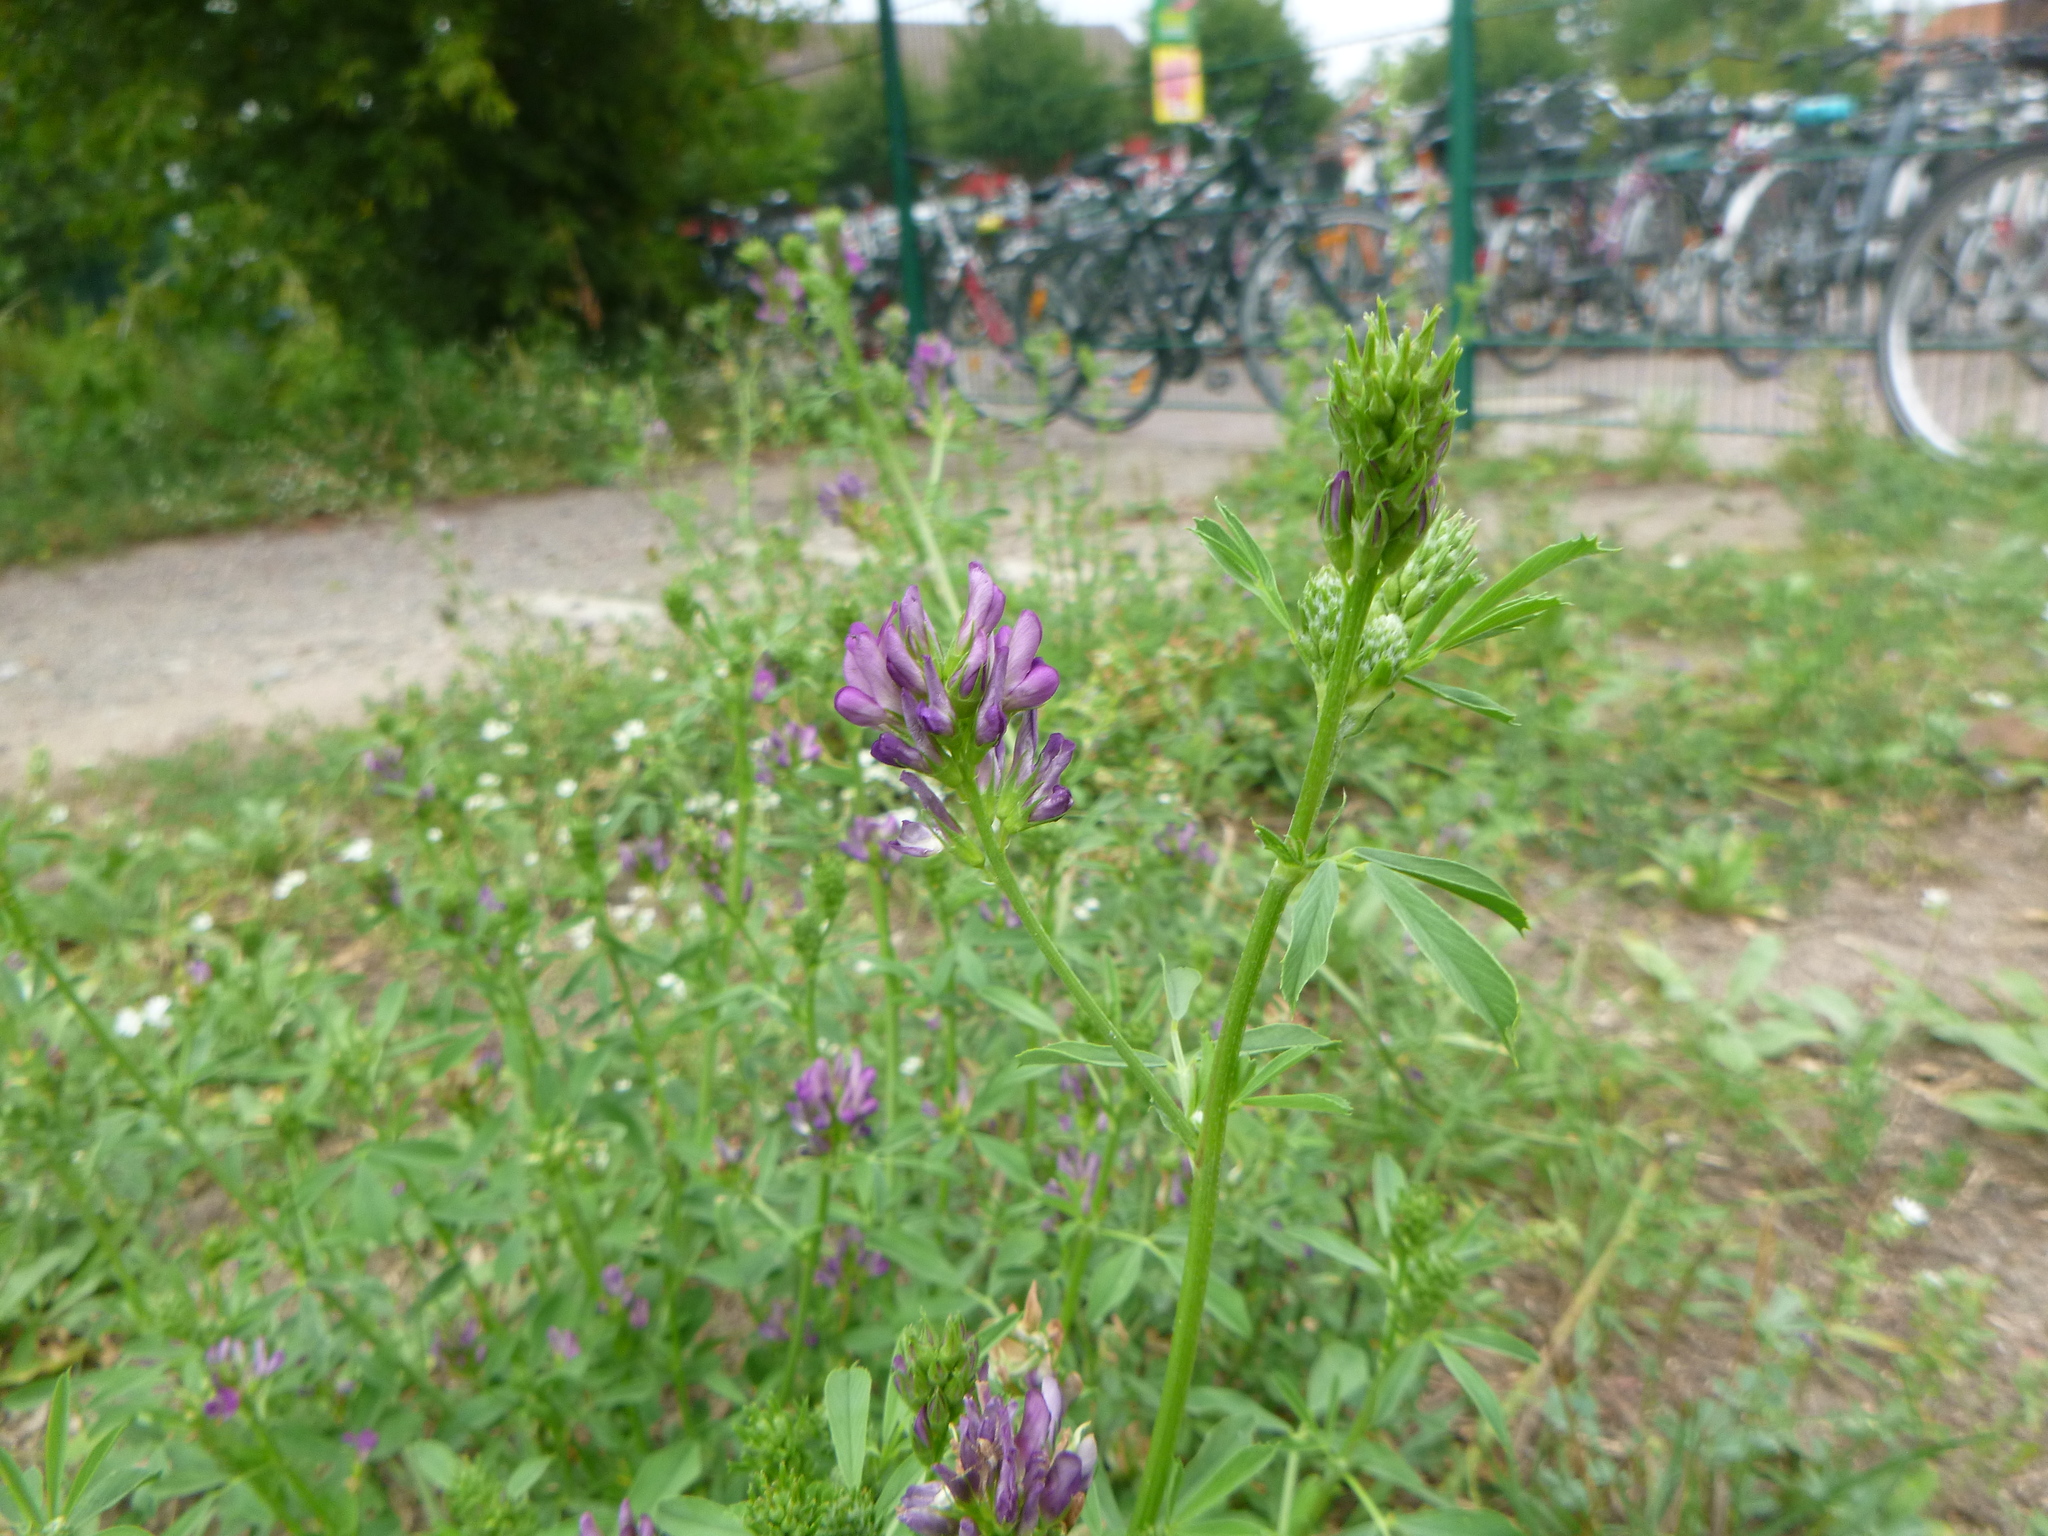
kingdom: Plantae
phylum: Tracheophyta
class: Magnoliopsida
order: Fabales
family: Fabaceae
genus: Medicago
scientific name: Medicago sativa
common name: Alfalfa
